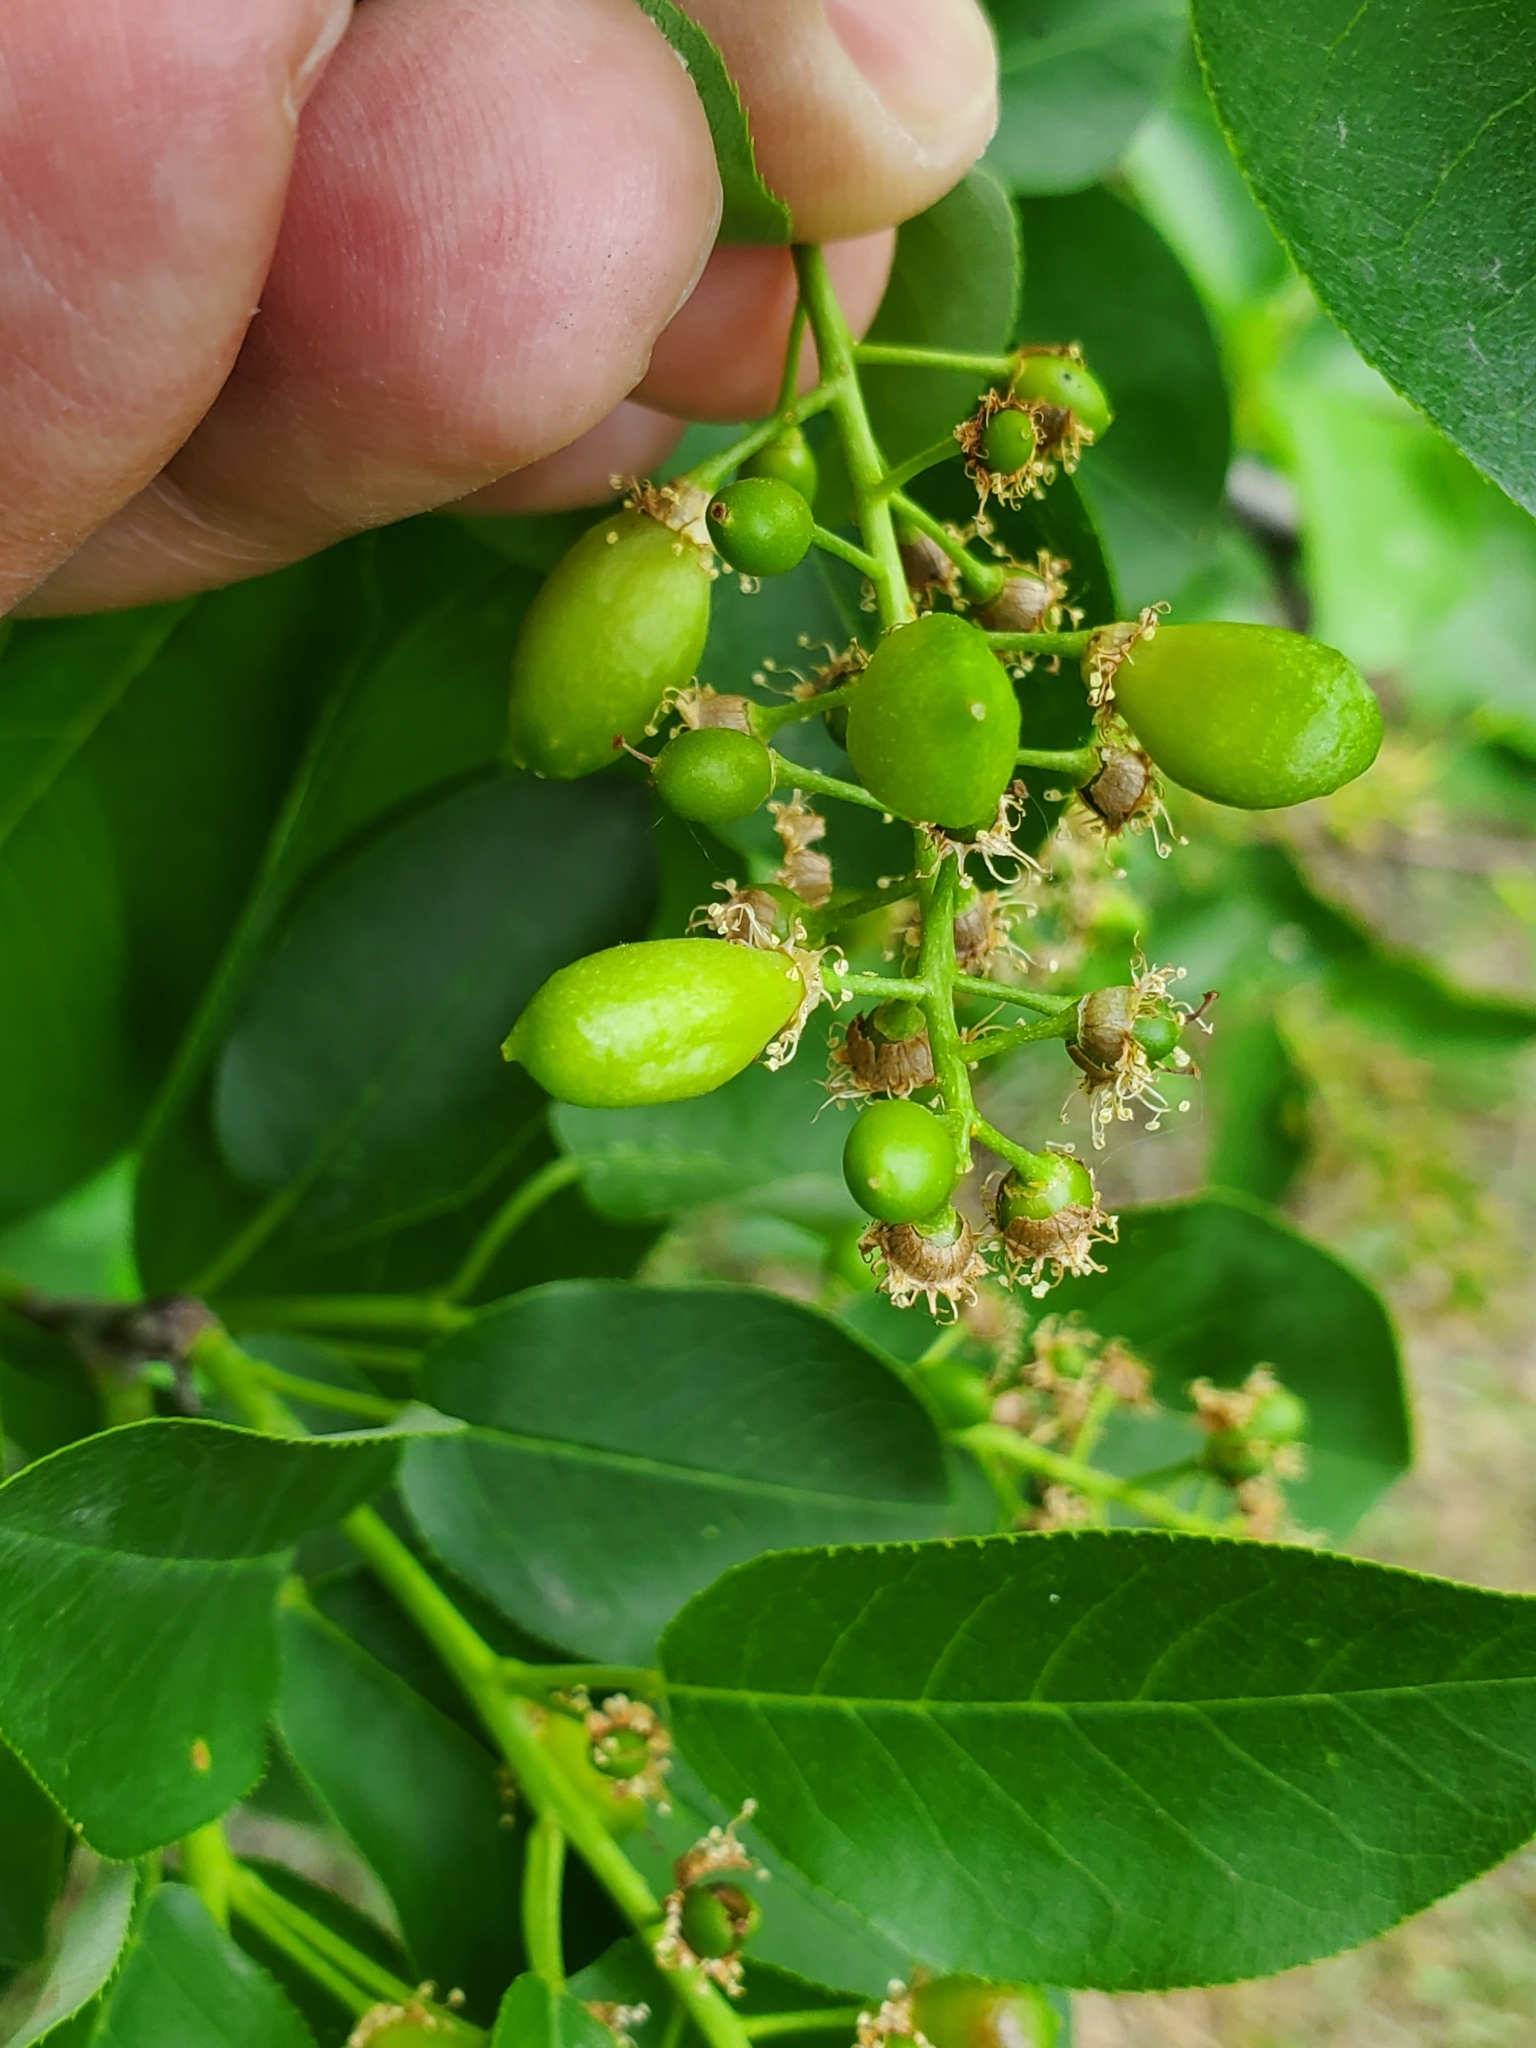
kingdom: Animalia
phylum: Arthropoda
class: Insecta
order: Diptera
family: Cecidomyiidae
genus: Contarinia
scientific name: Contarinia virginianiae
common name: Chokecherry midge
